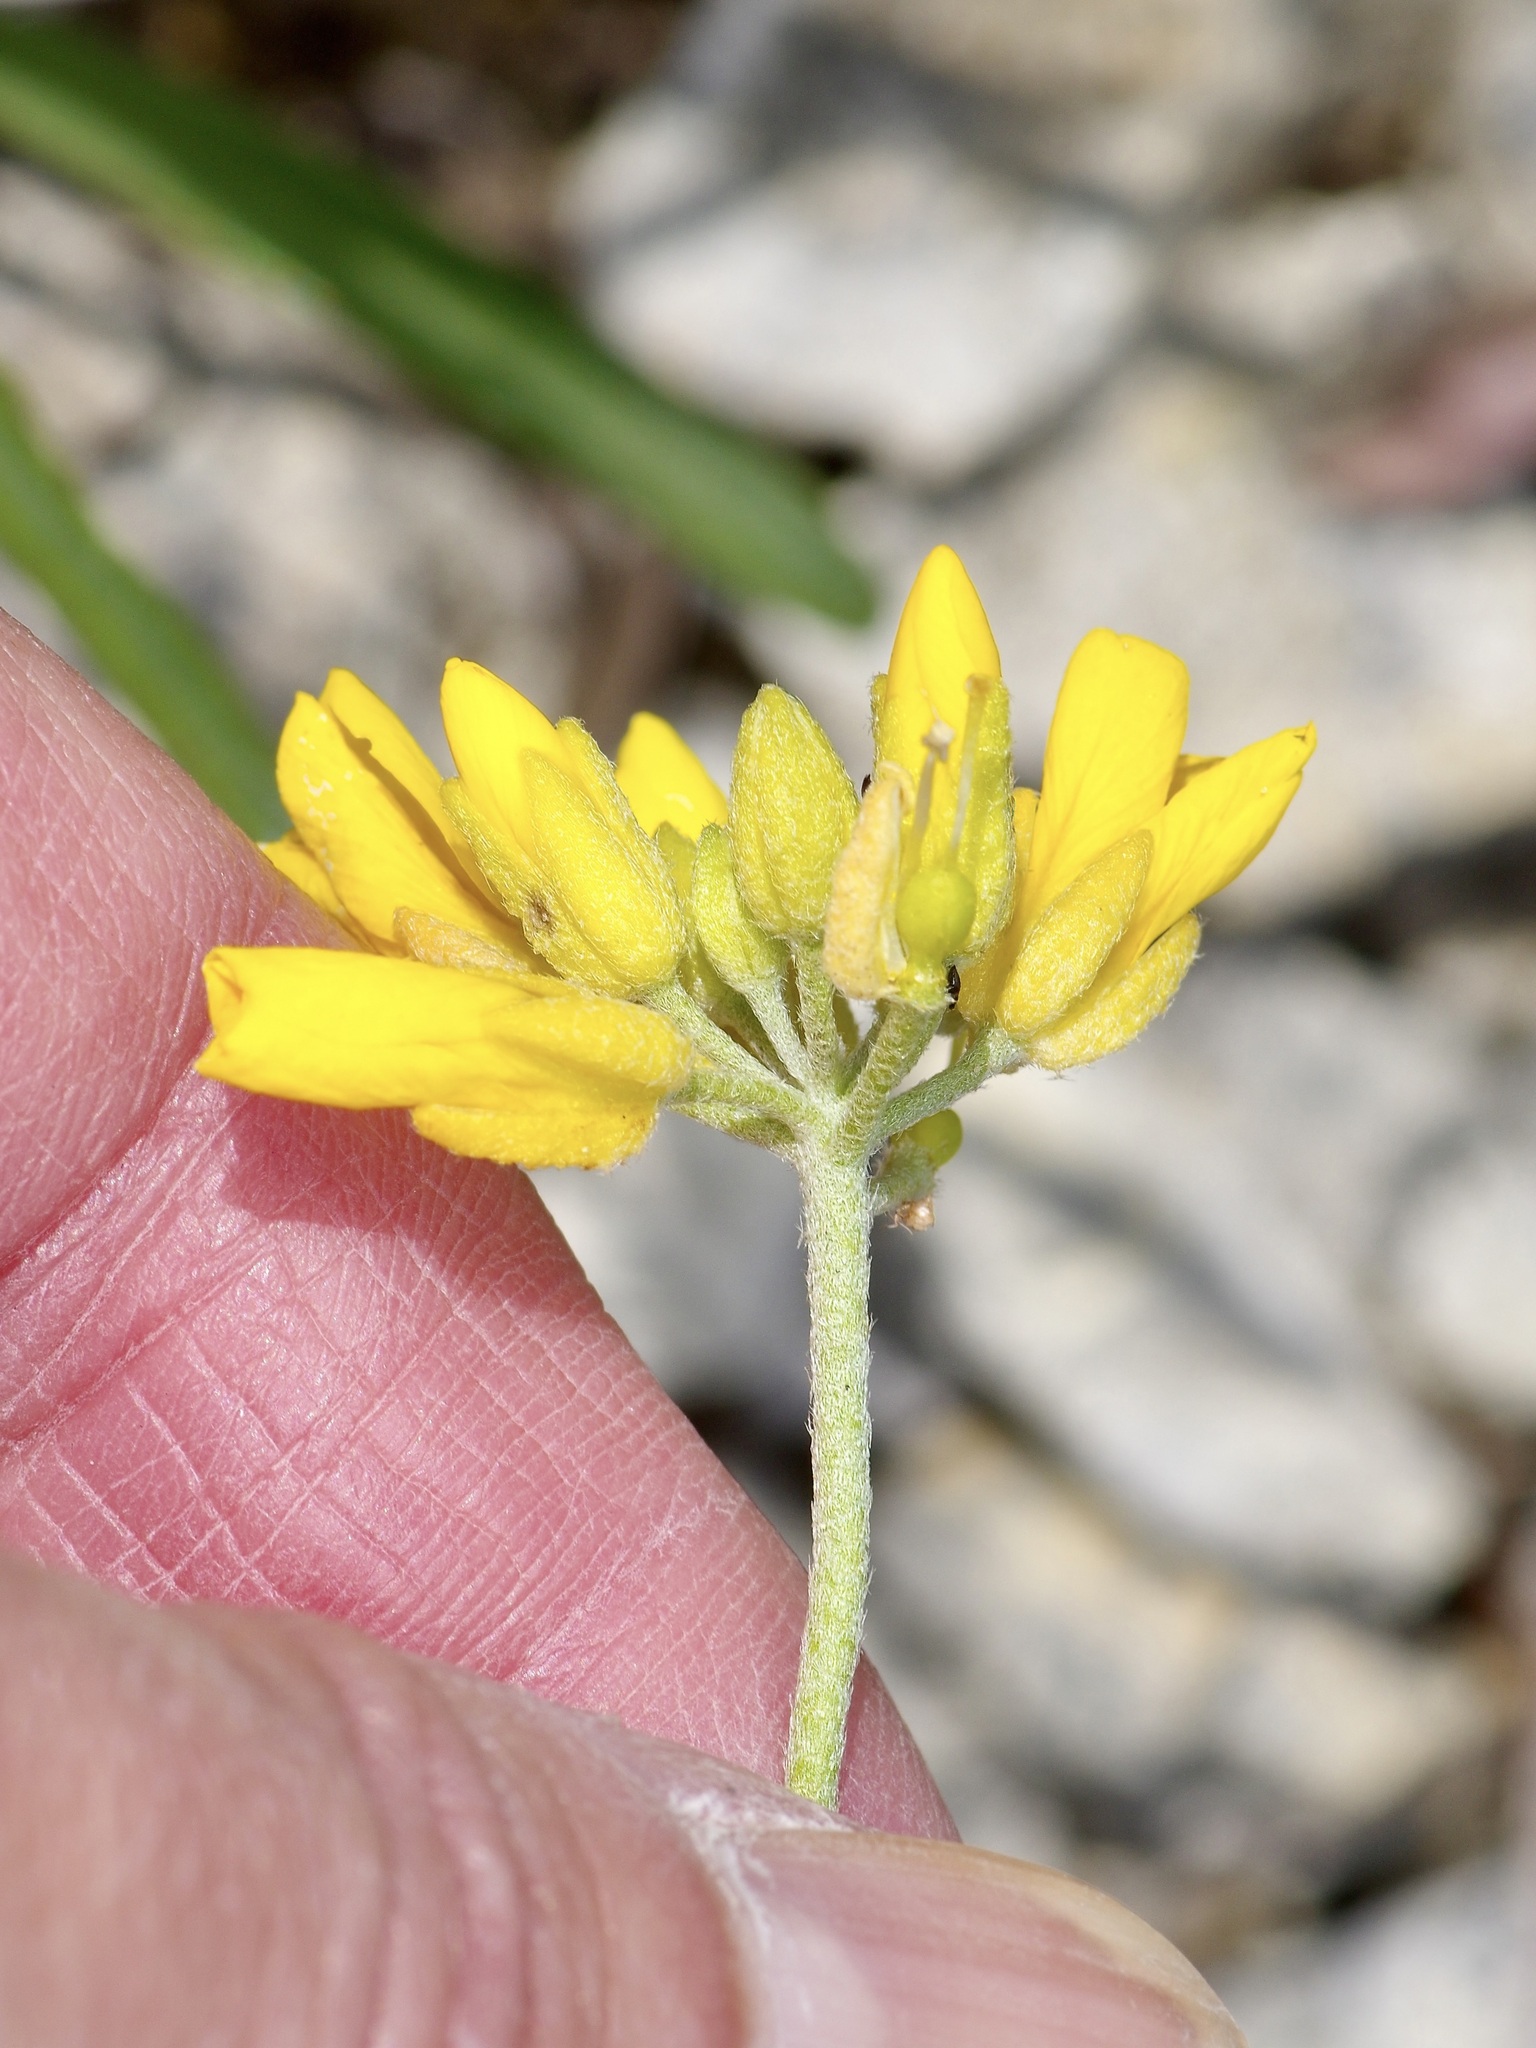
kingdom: Plantae
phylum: Tracheophyta
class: Magnoliopsida
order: Brassicales
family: Brassicaceae
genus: Physaria
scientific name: Physaria engelmannii
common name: Engelmann's bladderpod
